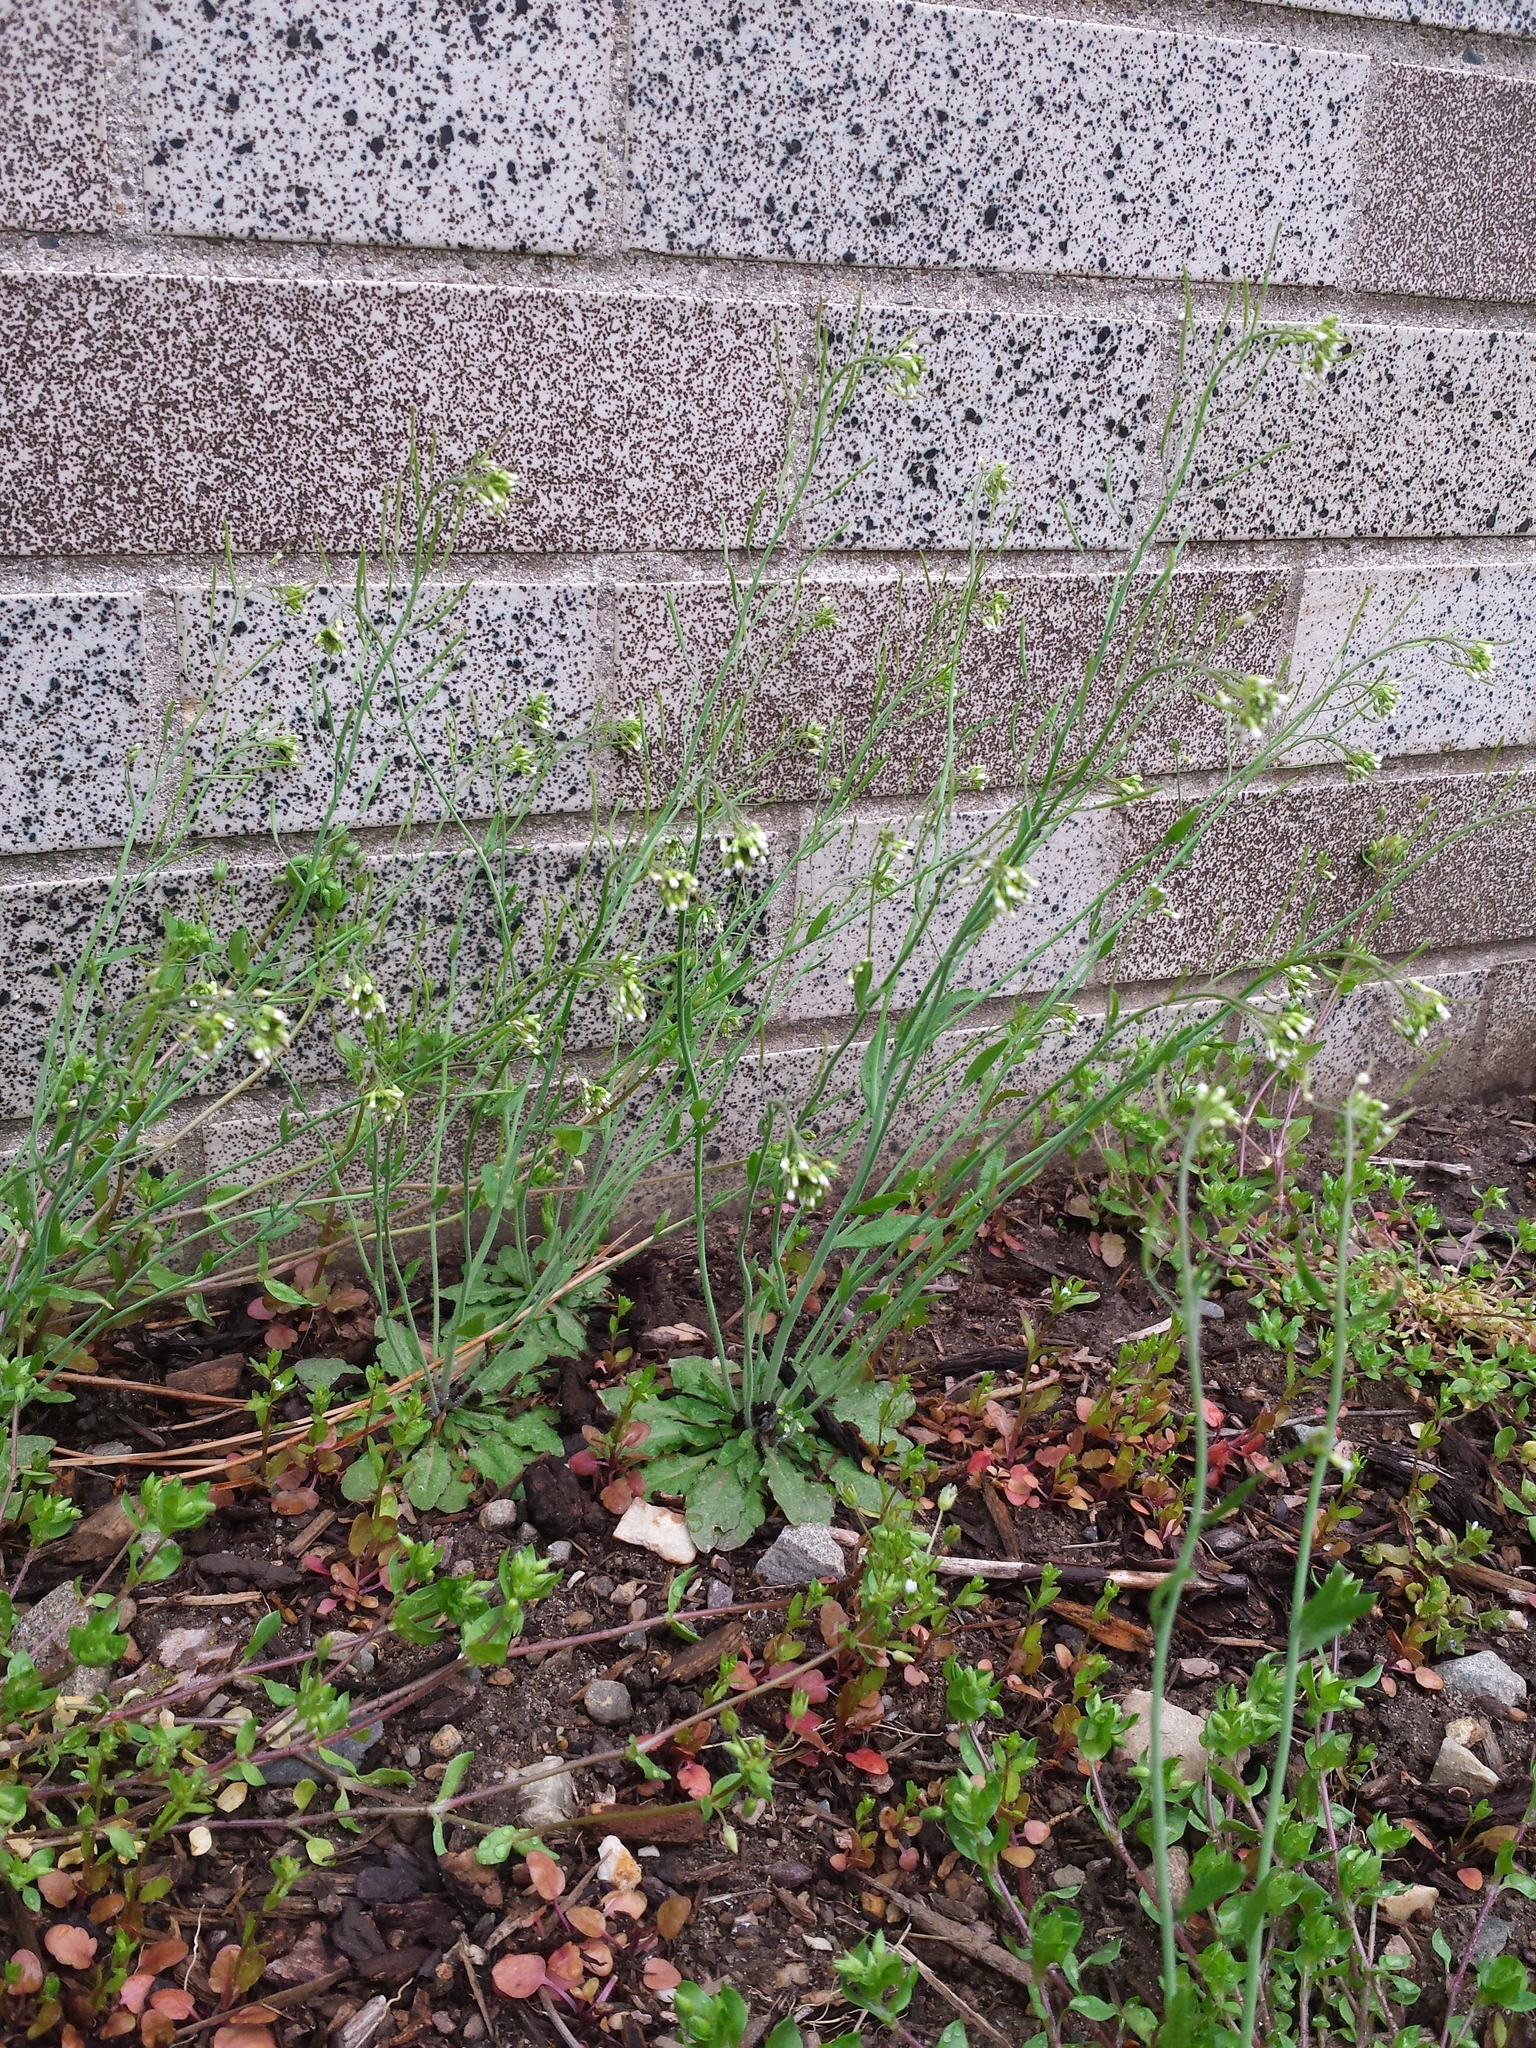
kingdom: Plantae
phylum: Tracheophyta
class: Magnoliopsida
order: Brassicales
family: Brassicaceae
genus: Arabidopsis
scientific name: Arabidopsis thaliana
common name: Thale cress
